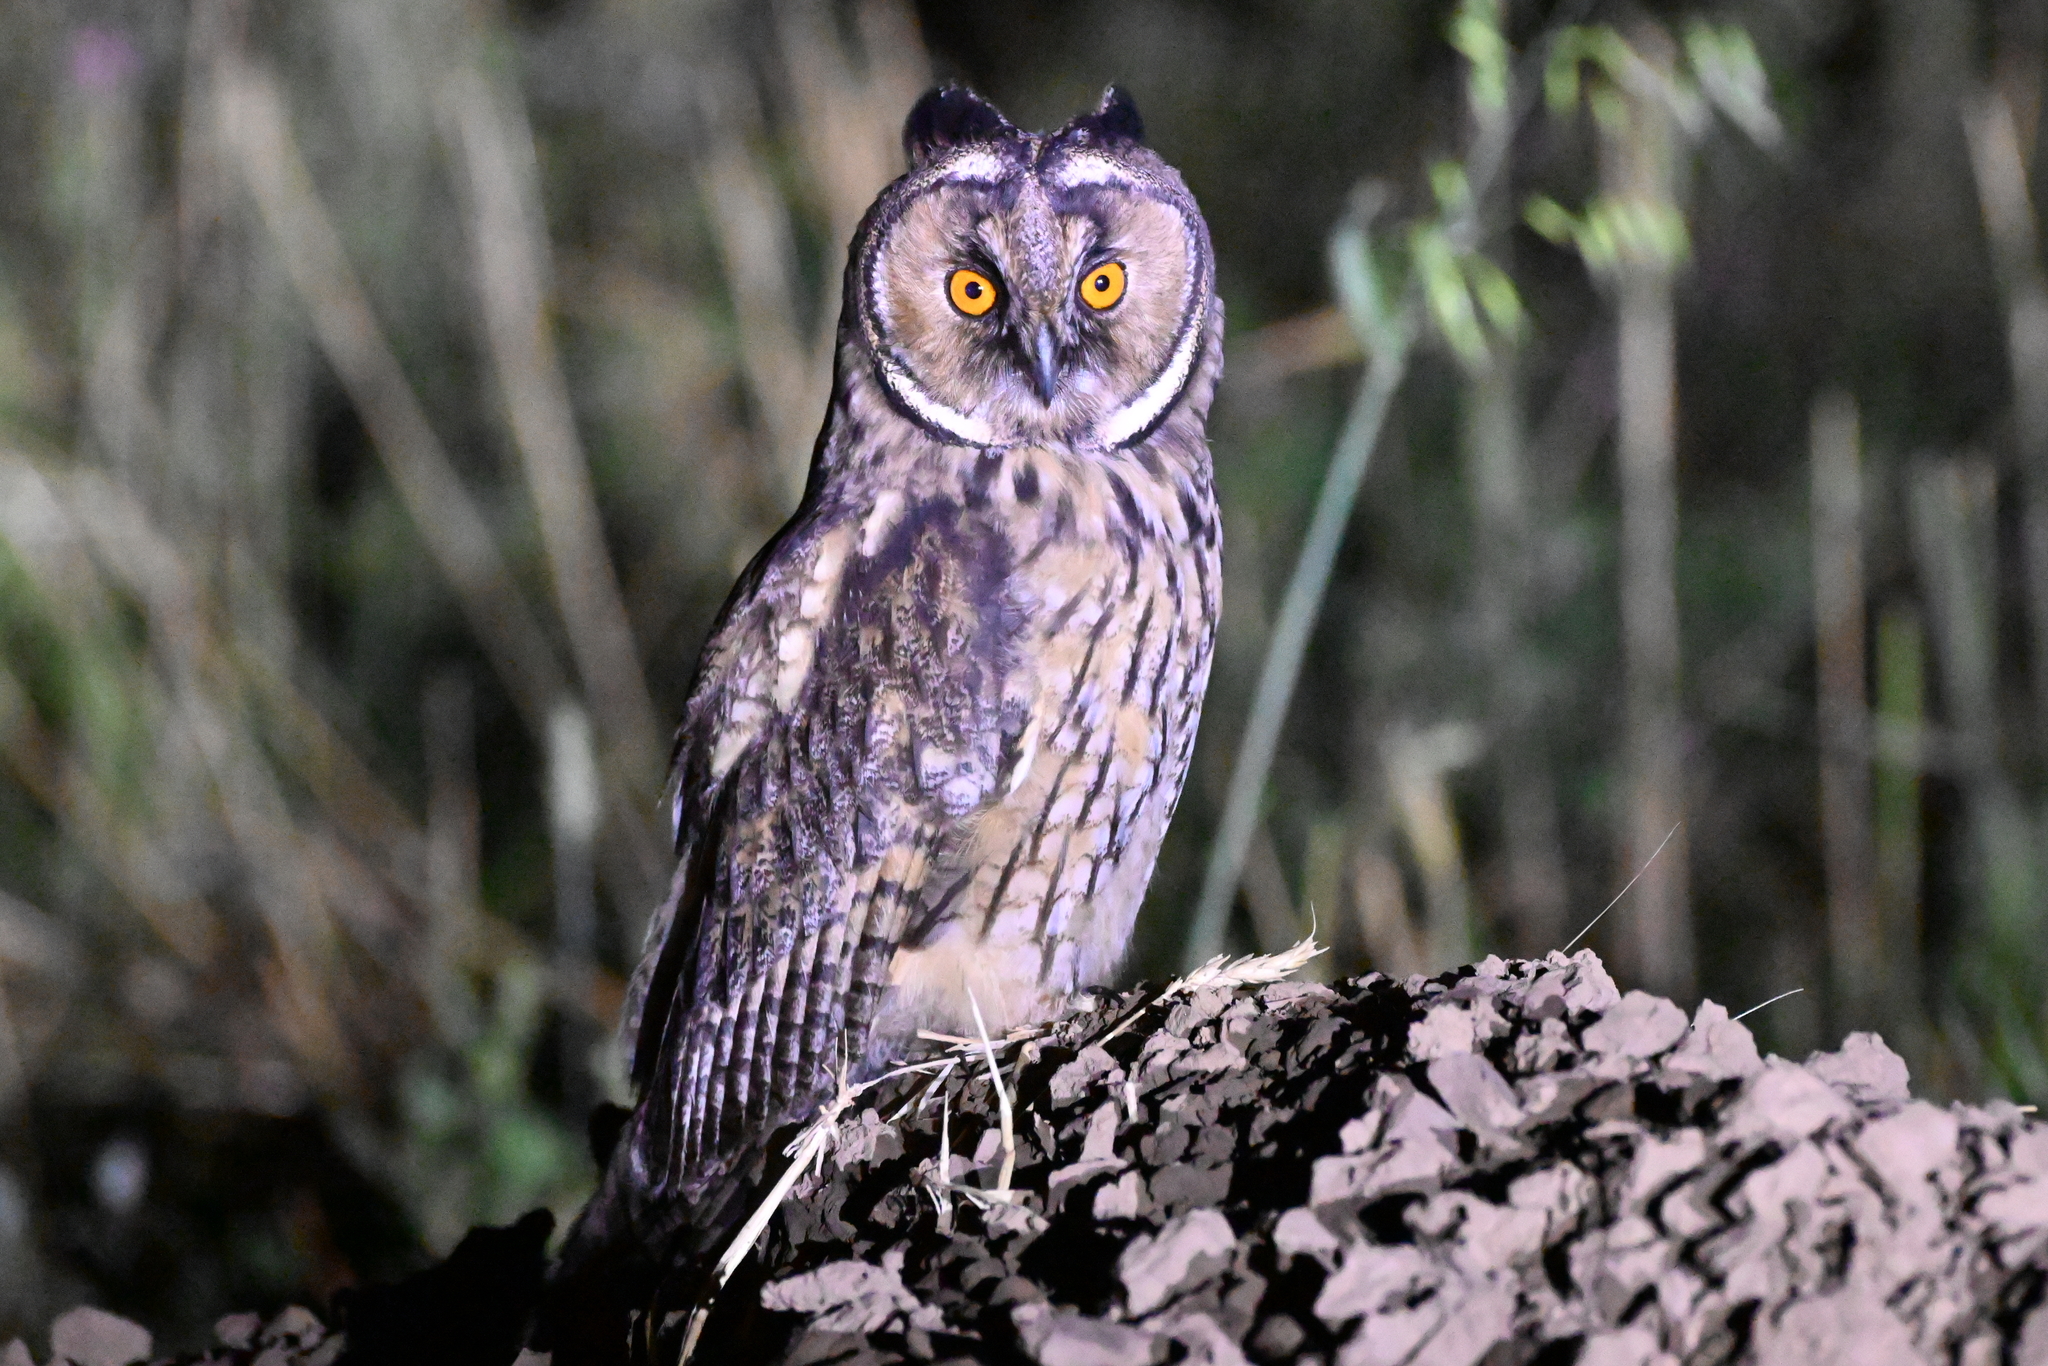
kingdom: Animalia
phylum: Chordata
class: Aves
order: Strigiformes
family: Strigidae
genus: Asio
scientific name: Asio otus
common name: Long-eared owl
